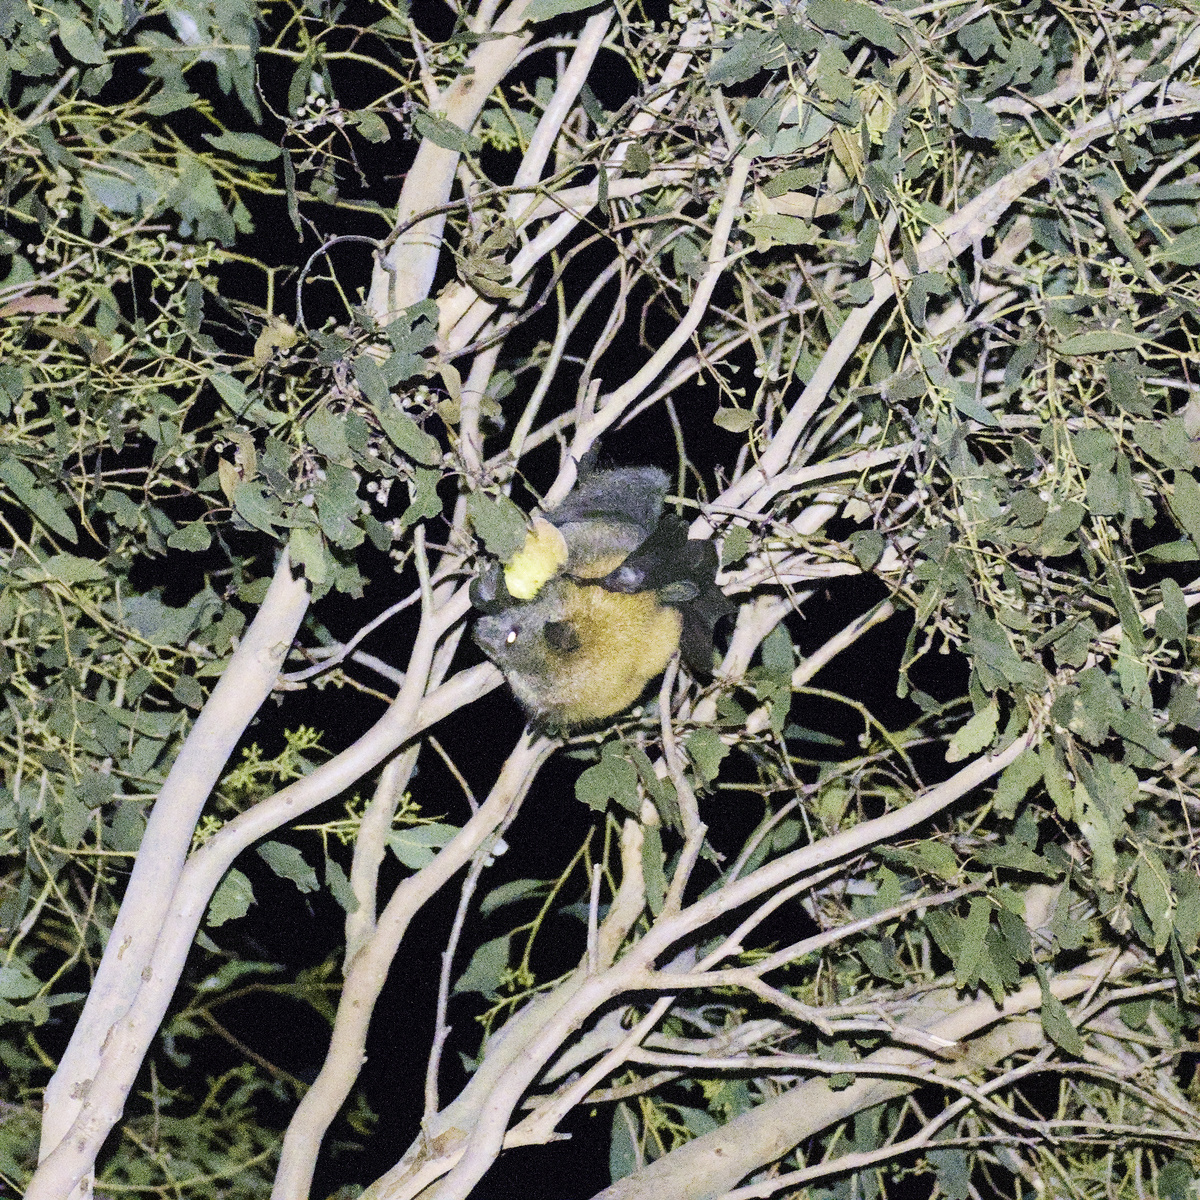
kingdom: Animalia
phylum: Chordata
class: Mammalia
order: Chiroptera
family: Pteropodidae
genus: Pteropus
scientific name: Pteropus poliocephalus
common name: Gray-headed flying fox
